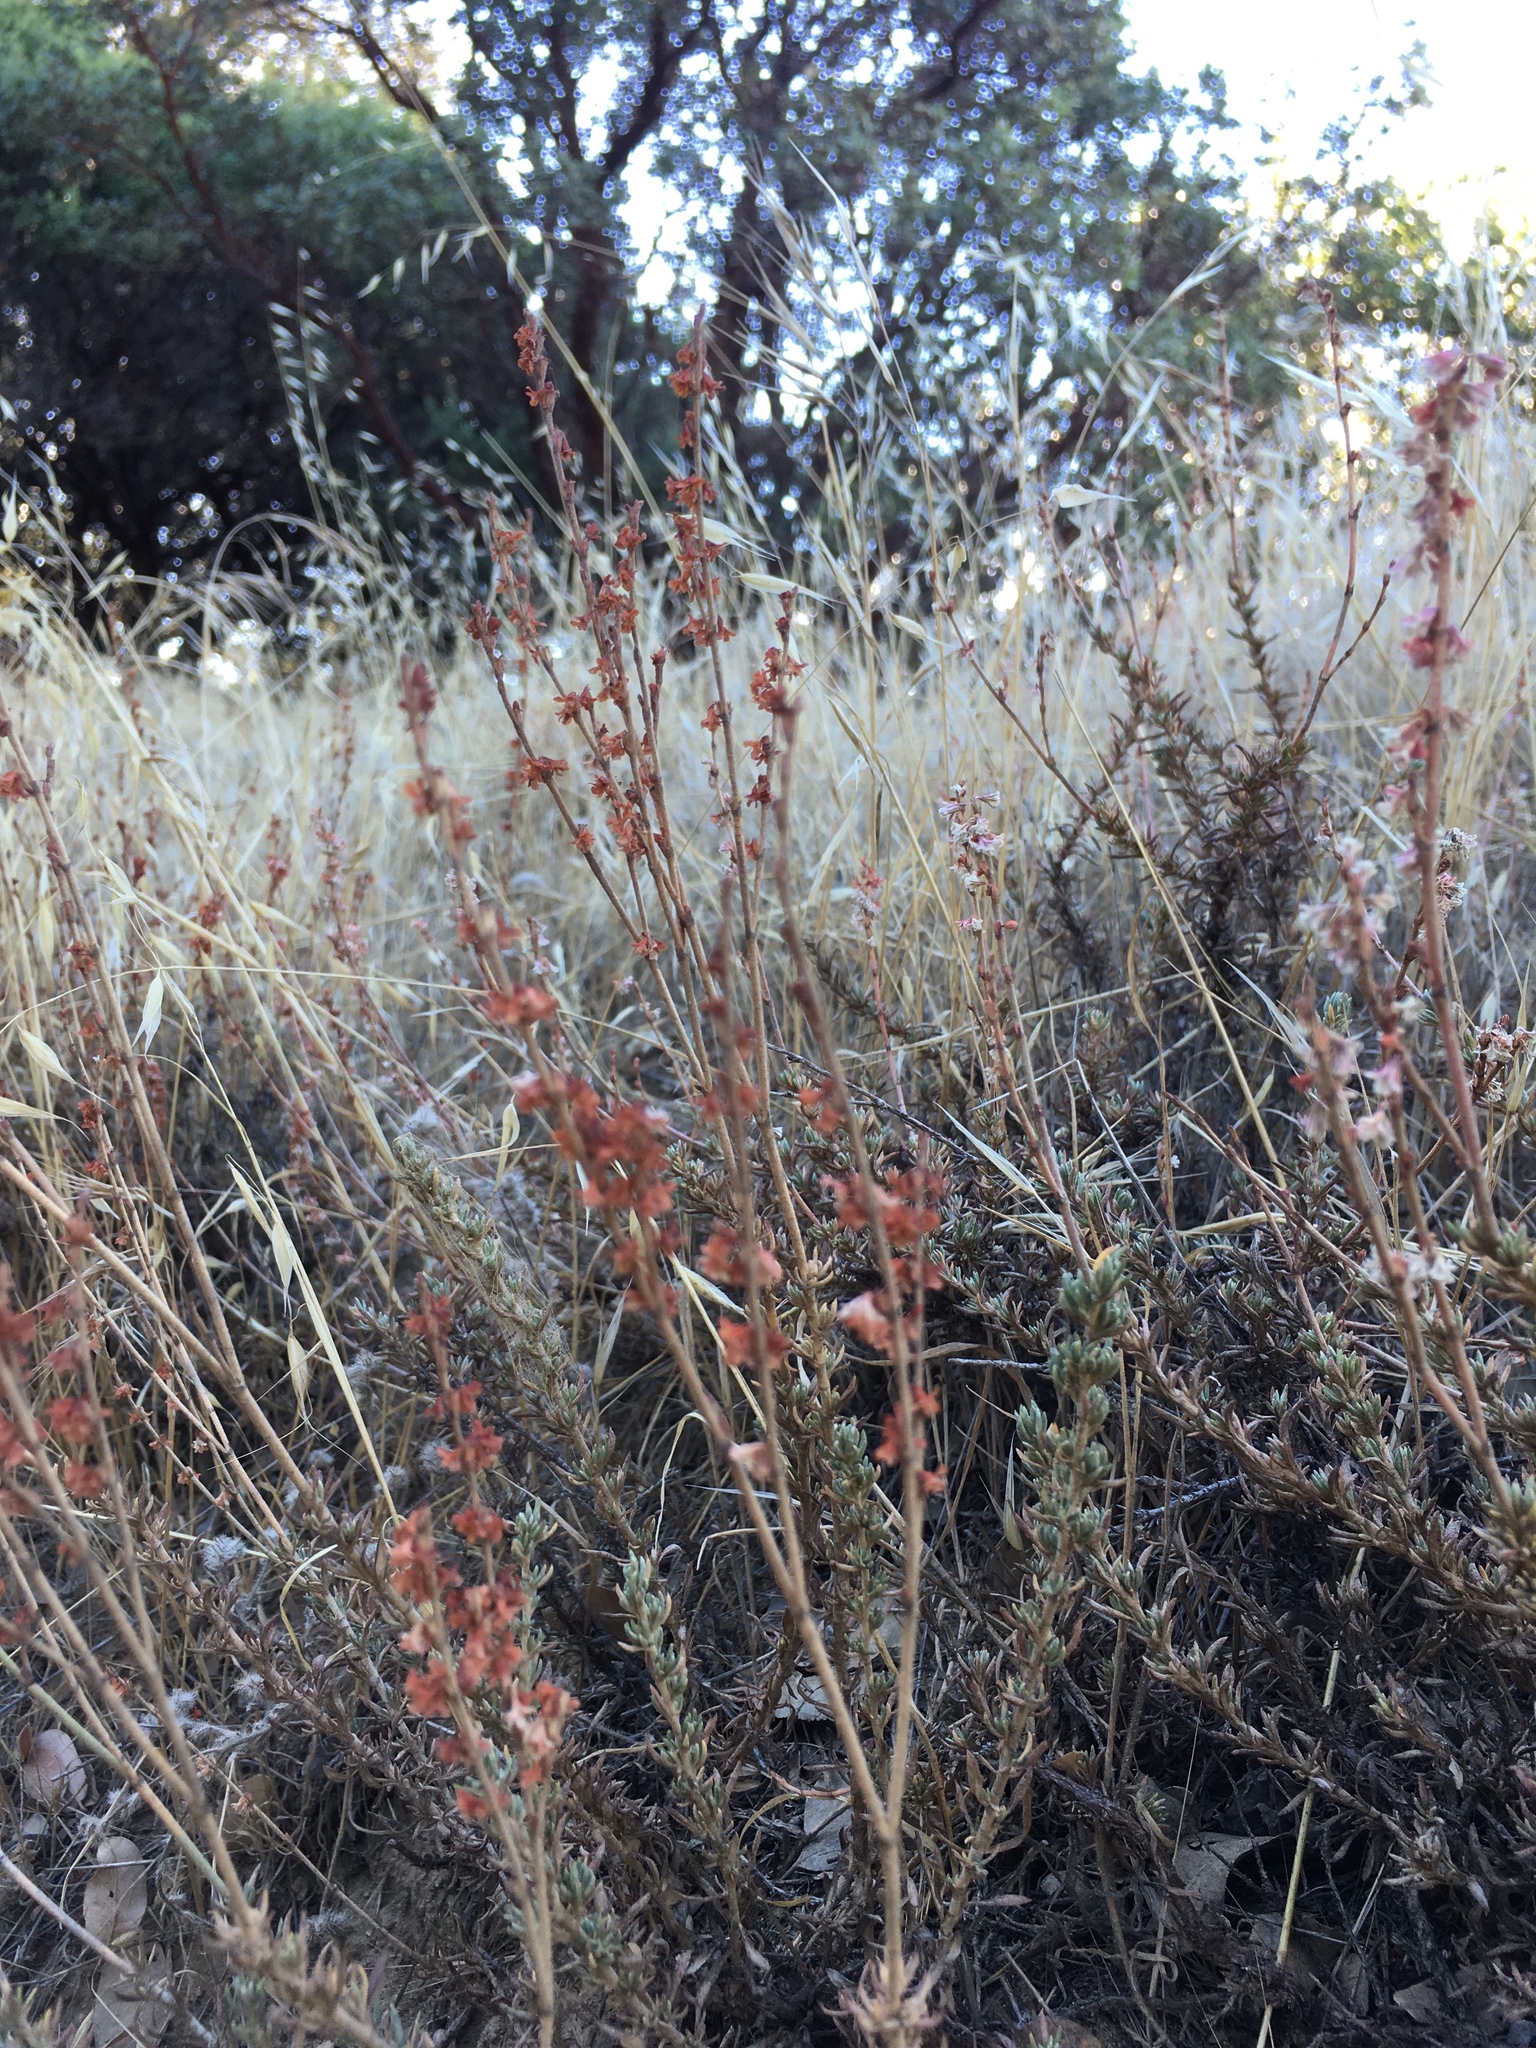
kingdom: Plantae
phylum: Tracheophyta
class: Magnoliopsida
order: Caryophyllales
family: Polygonaceae
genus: Eriogonum
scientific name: Eriogonum wrightii
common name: Bastard-sage
